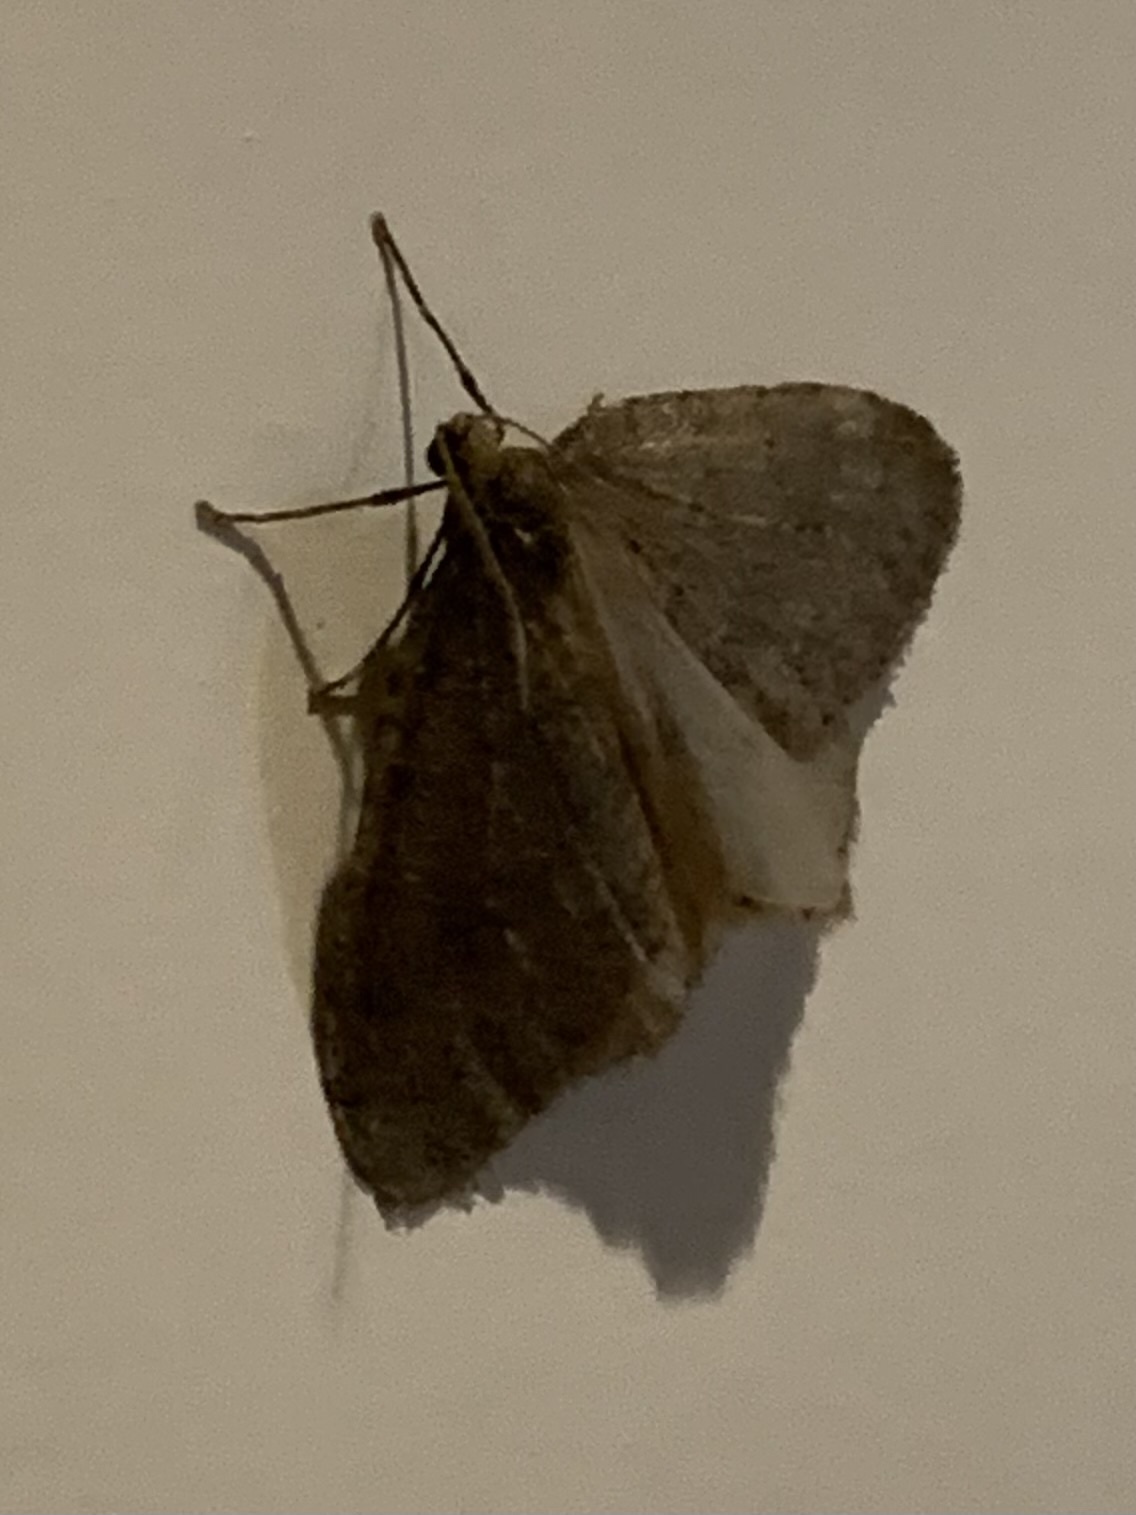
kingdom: Animalia
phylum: Arthropoda
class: Insecta
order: Lepidoptera
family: Geometridae
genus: Operophtera
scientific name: Operophtera
